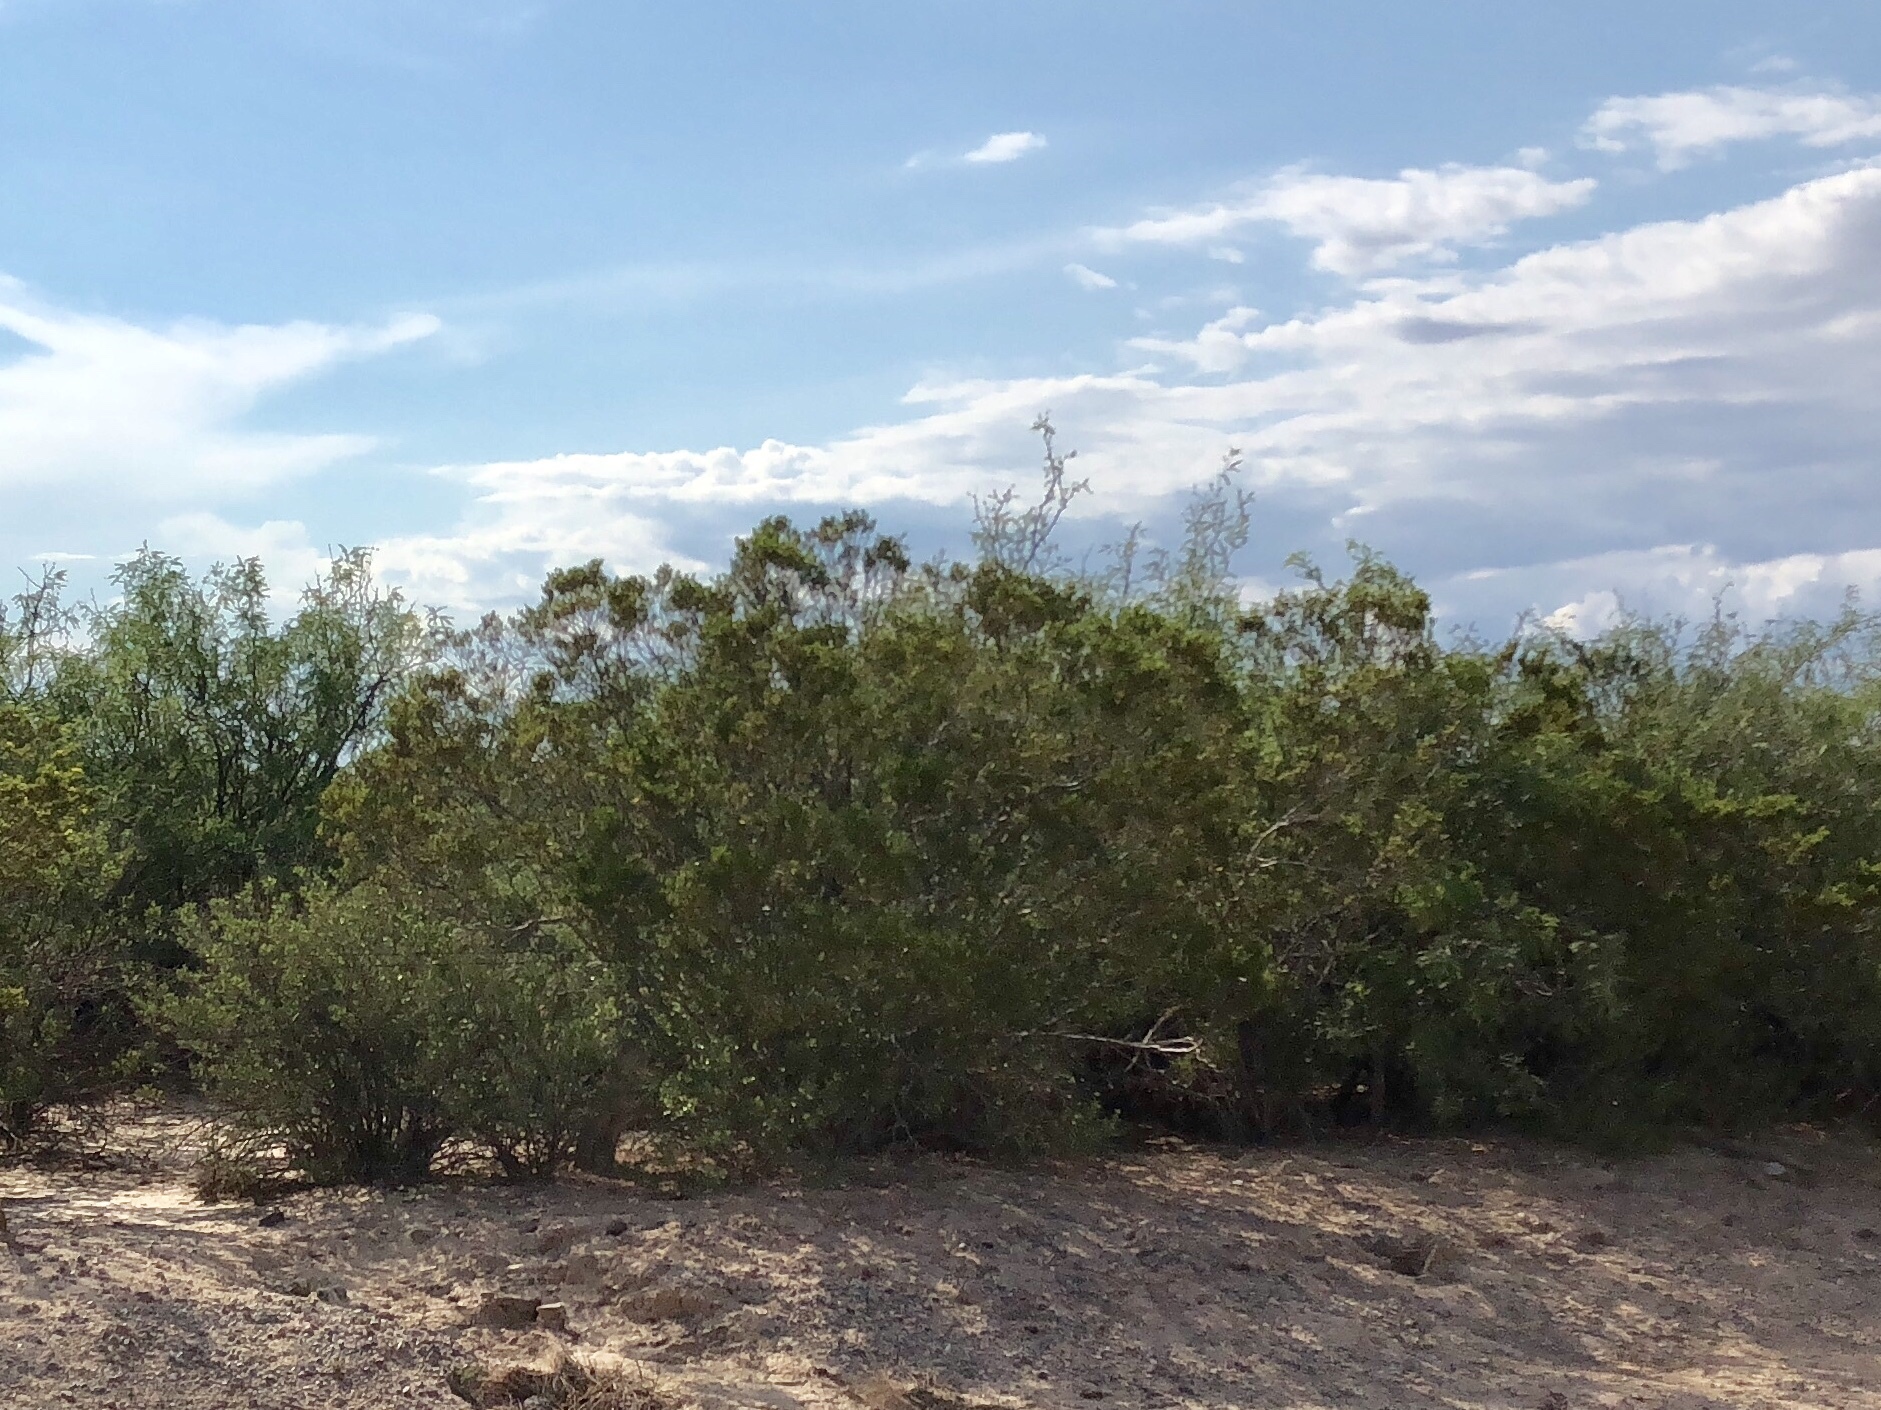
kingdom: Plantae
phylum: Tracheophyta
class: Magnoliopsida
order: Zygophyllales
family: Zygophyllaceae
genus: Larrea
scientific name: Larrea tridentata
